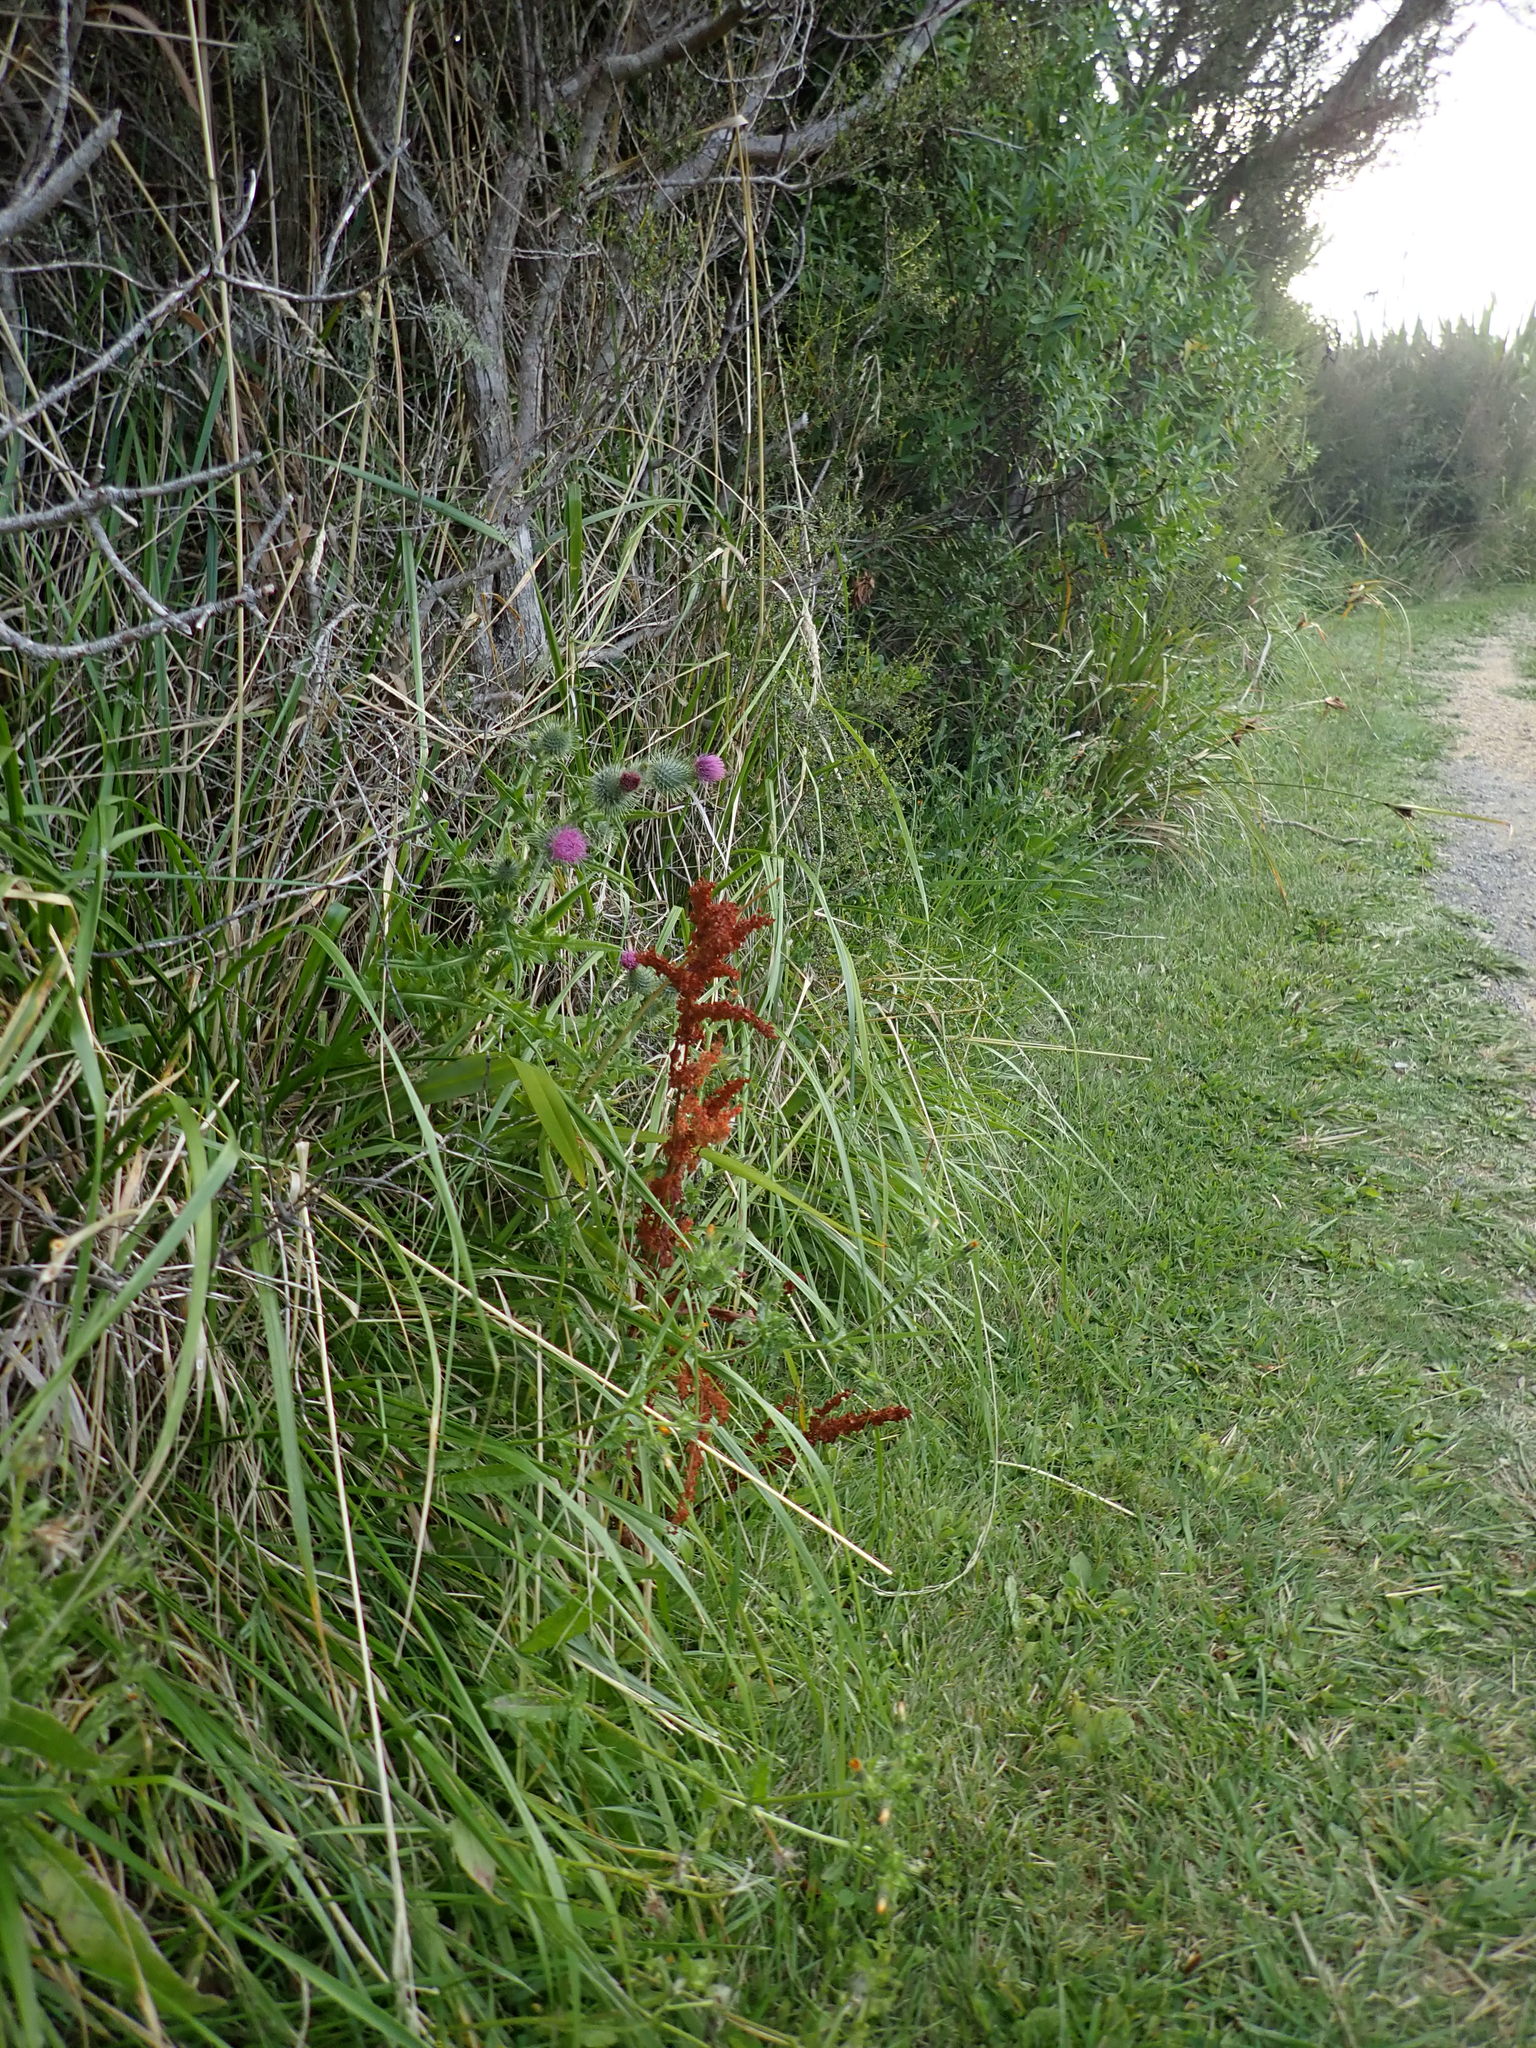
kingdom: Plantae
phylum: Tracheophyta
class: Magnoliopsida
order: Asterales
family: Asteraceae
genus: Cirsium
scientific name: Cirsium vulgare
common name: Bull thistle
